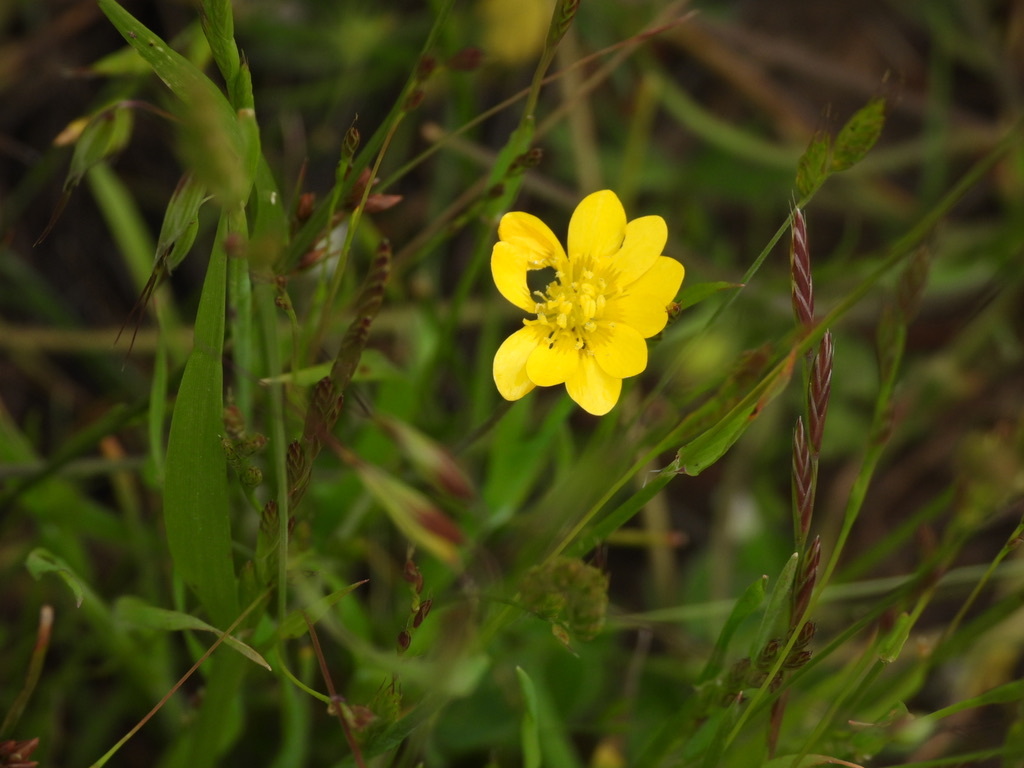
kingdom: Plantae
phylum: Tracheophyta
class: Magnoliopsida
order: Ranunculales
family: Ranunculaceae
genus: Ranunculus
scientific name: Ranunculus californicus
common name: California buttercup
